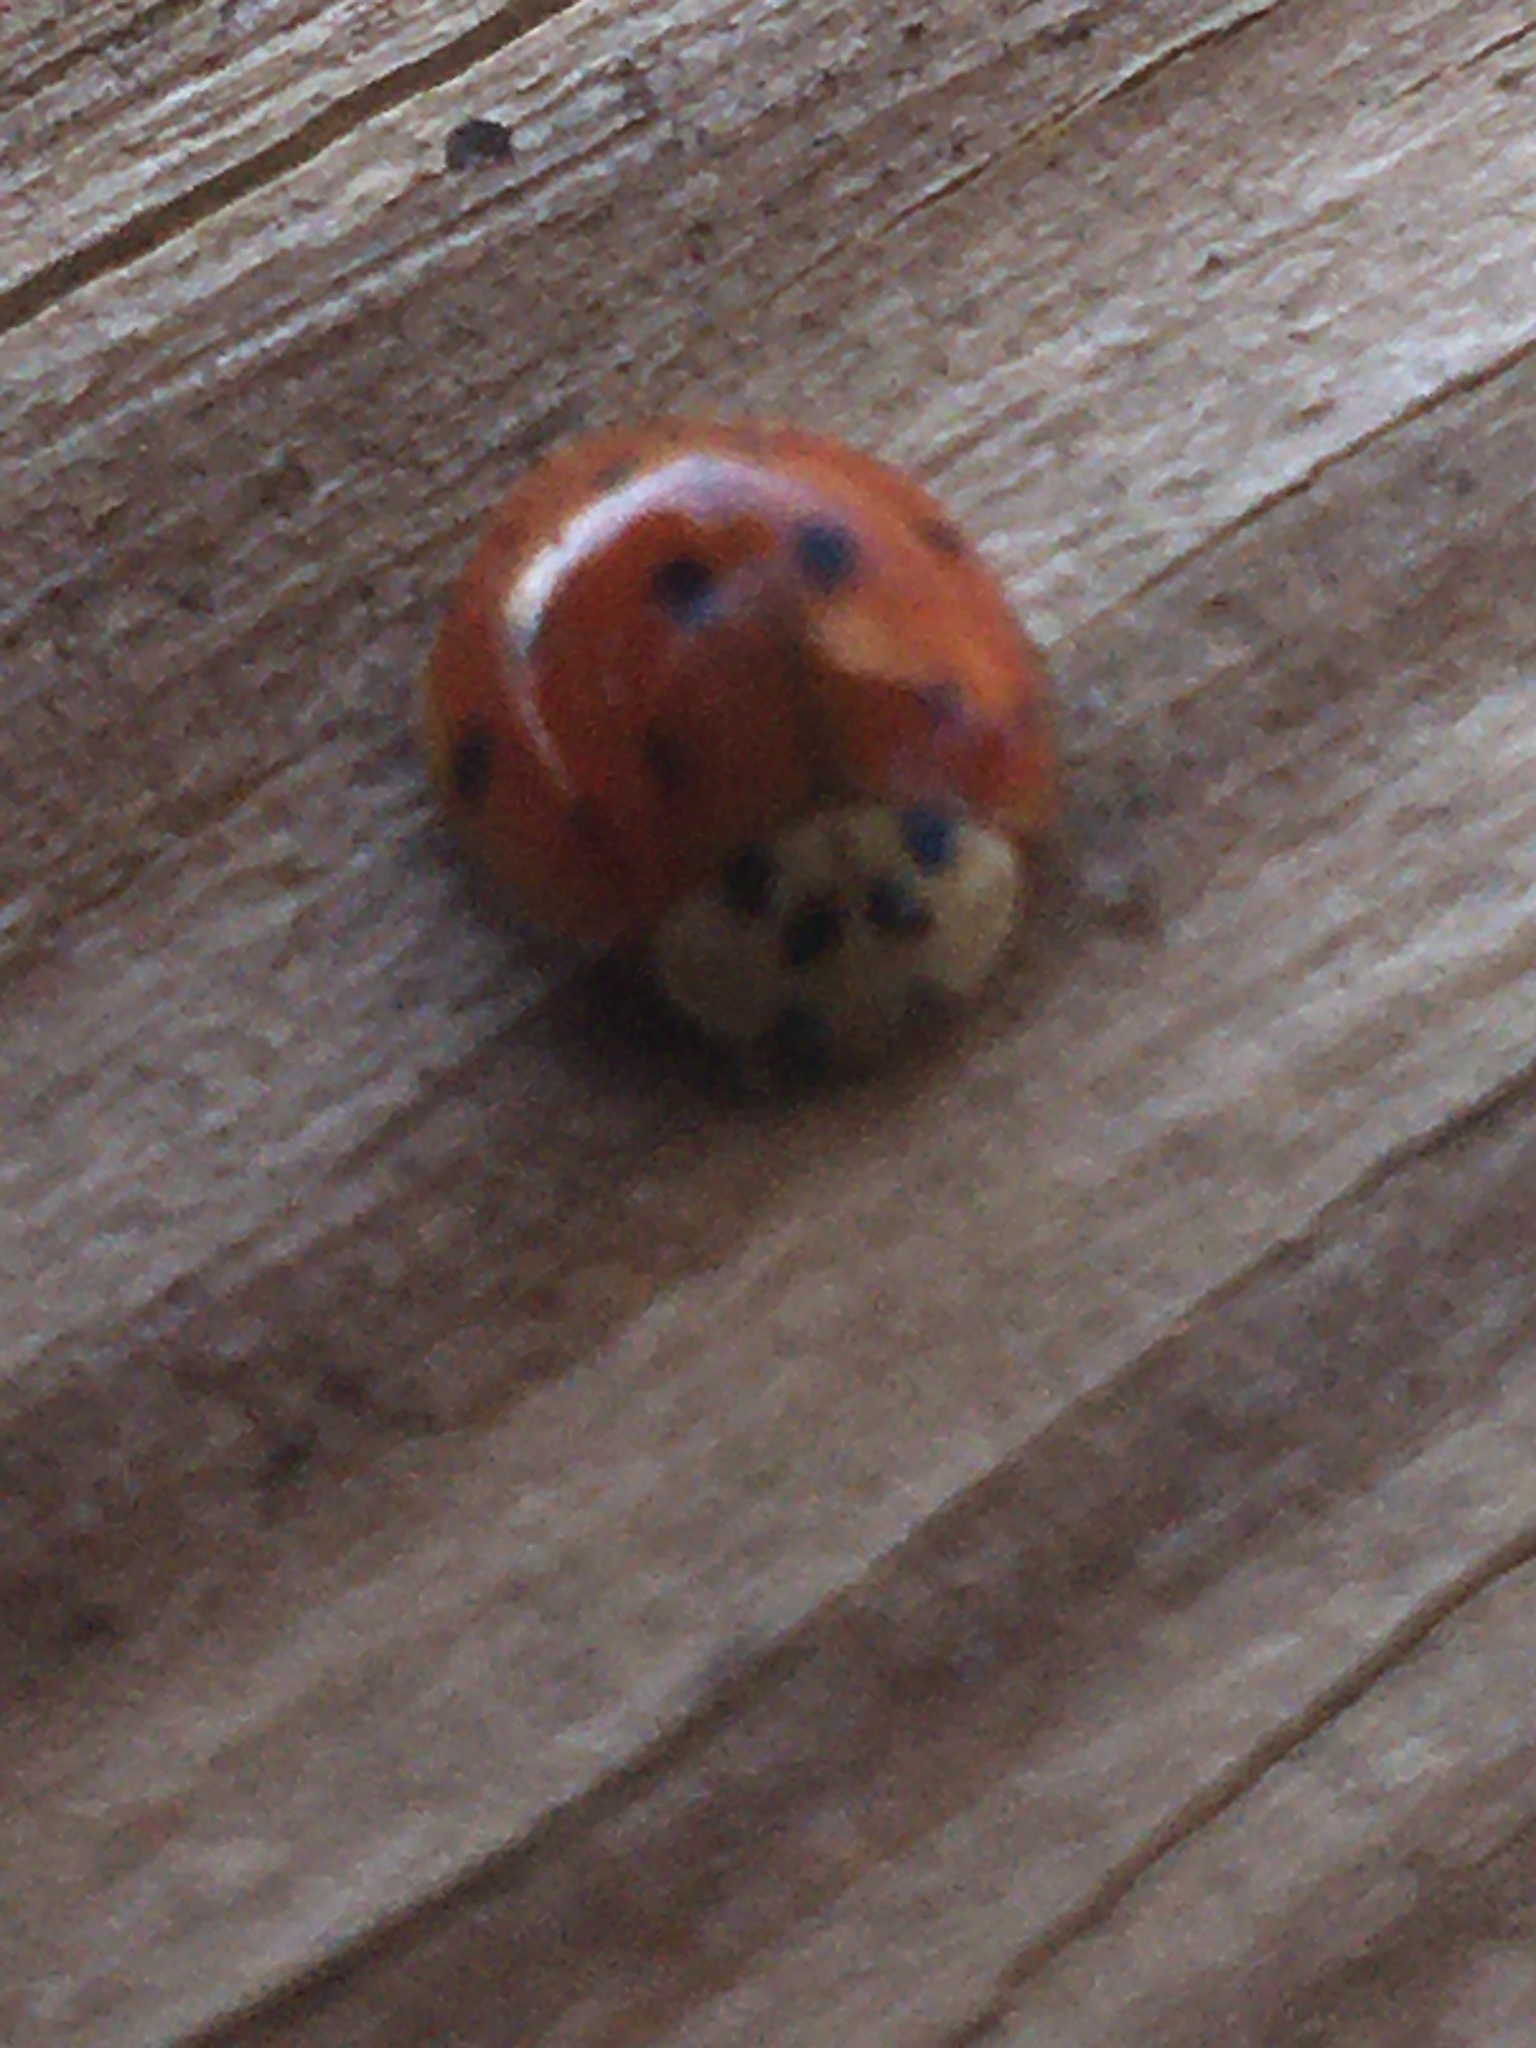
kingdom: Animalia
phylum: Arthropoda
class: Insecta
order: Coleoptera
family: Coccinellidae
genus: Harmonia
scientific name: Harmonia axyridis
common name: Harlequin ladybird
